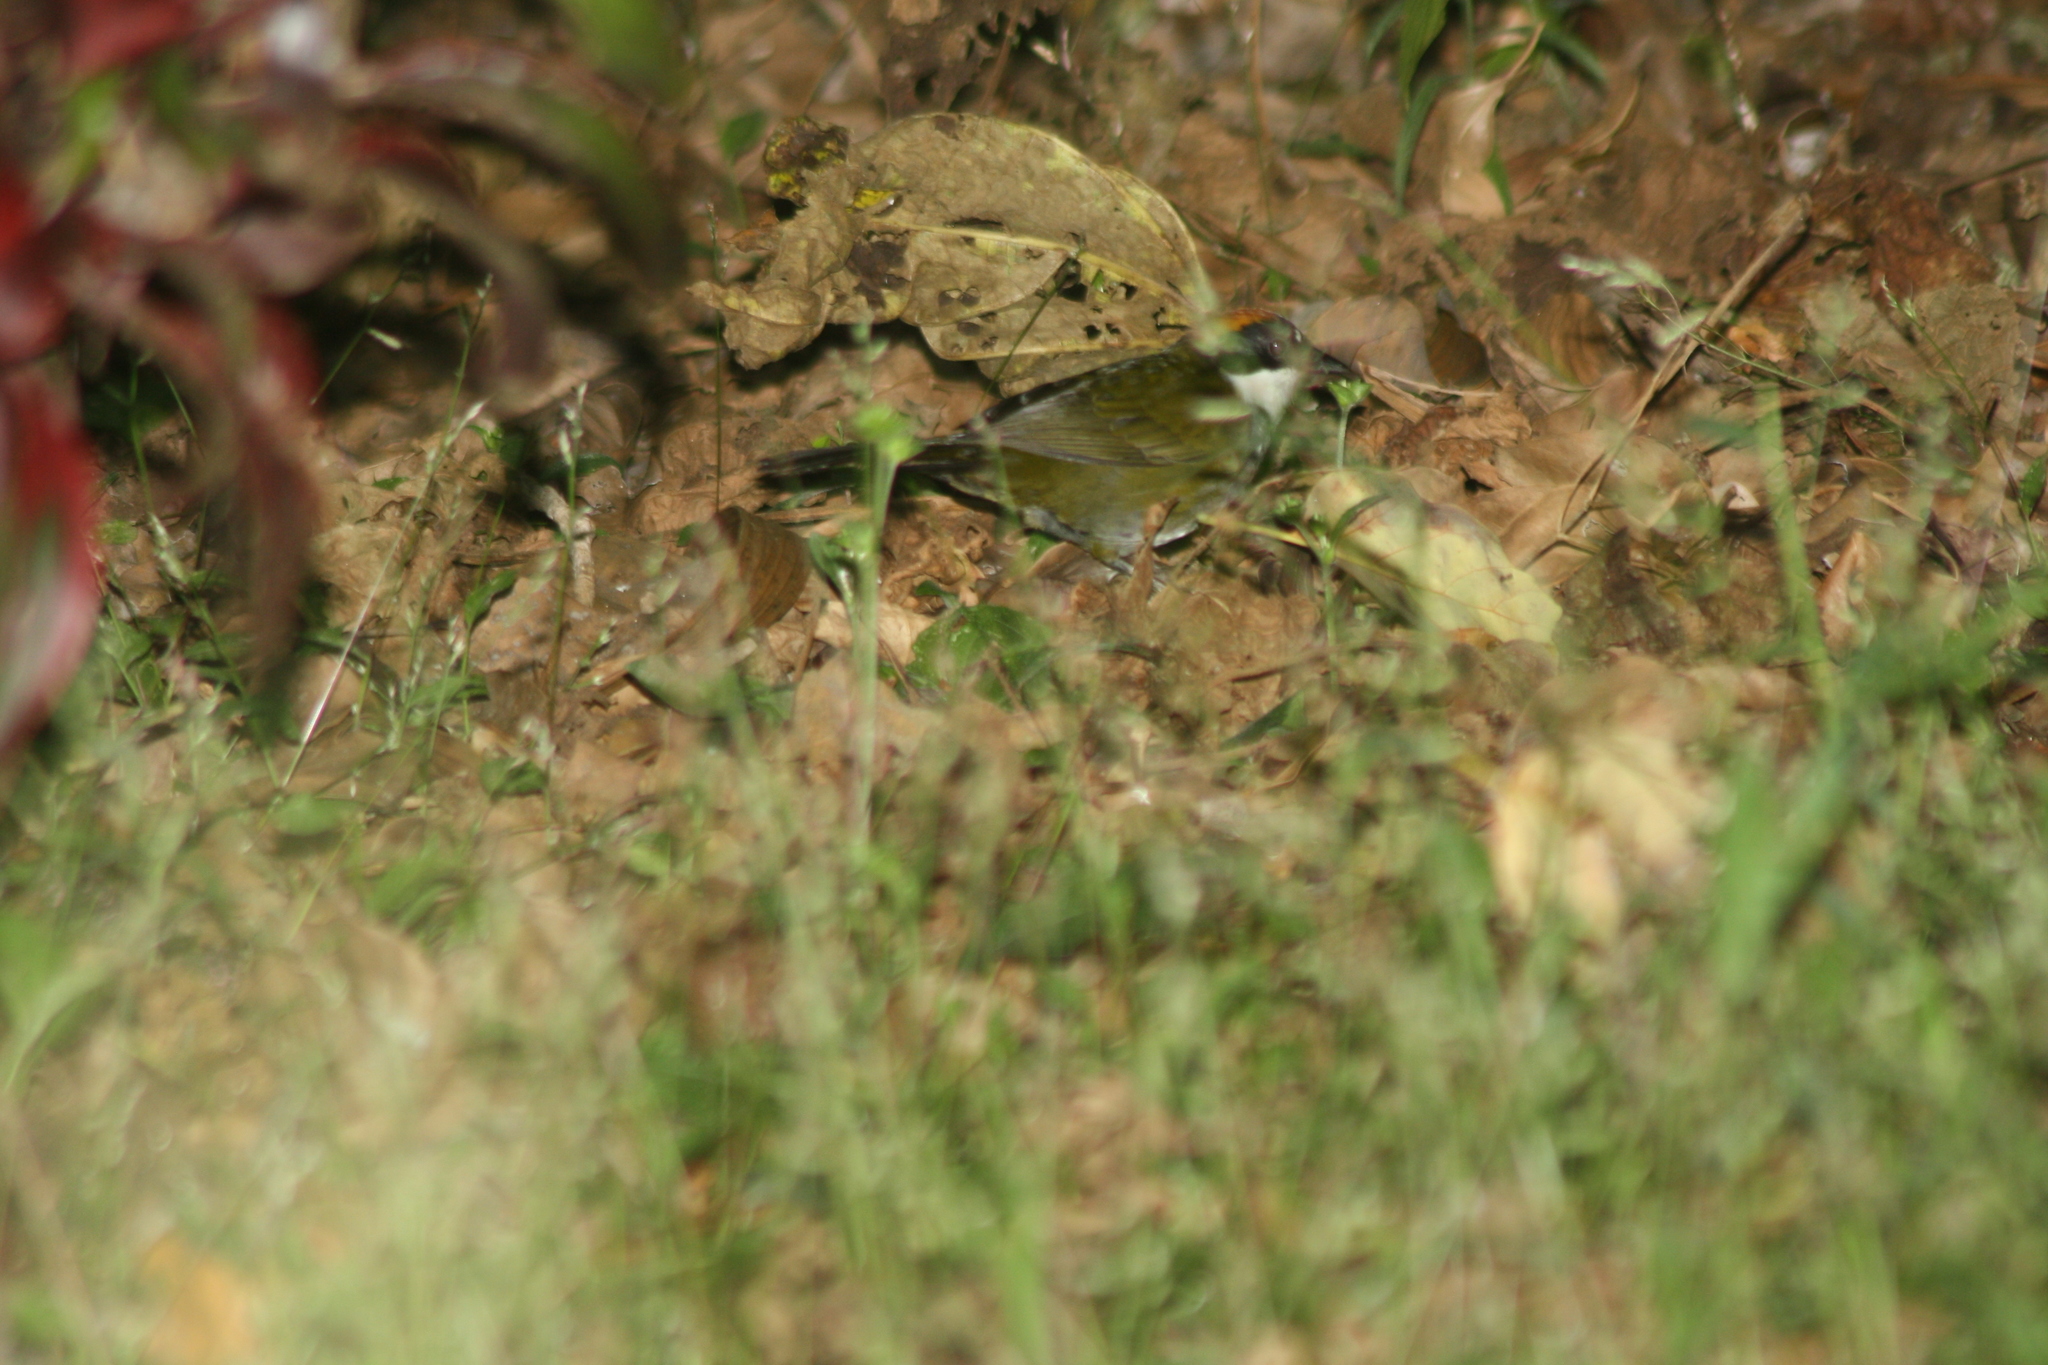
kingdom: Animalia
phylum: Chordata
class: Aves
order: Passeriformes
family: Passerellidae
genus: Arremon
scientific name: Arremon brunneinucha
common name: Chestnut-capped brushfinch
